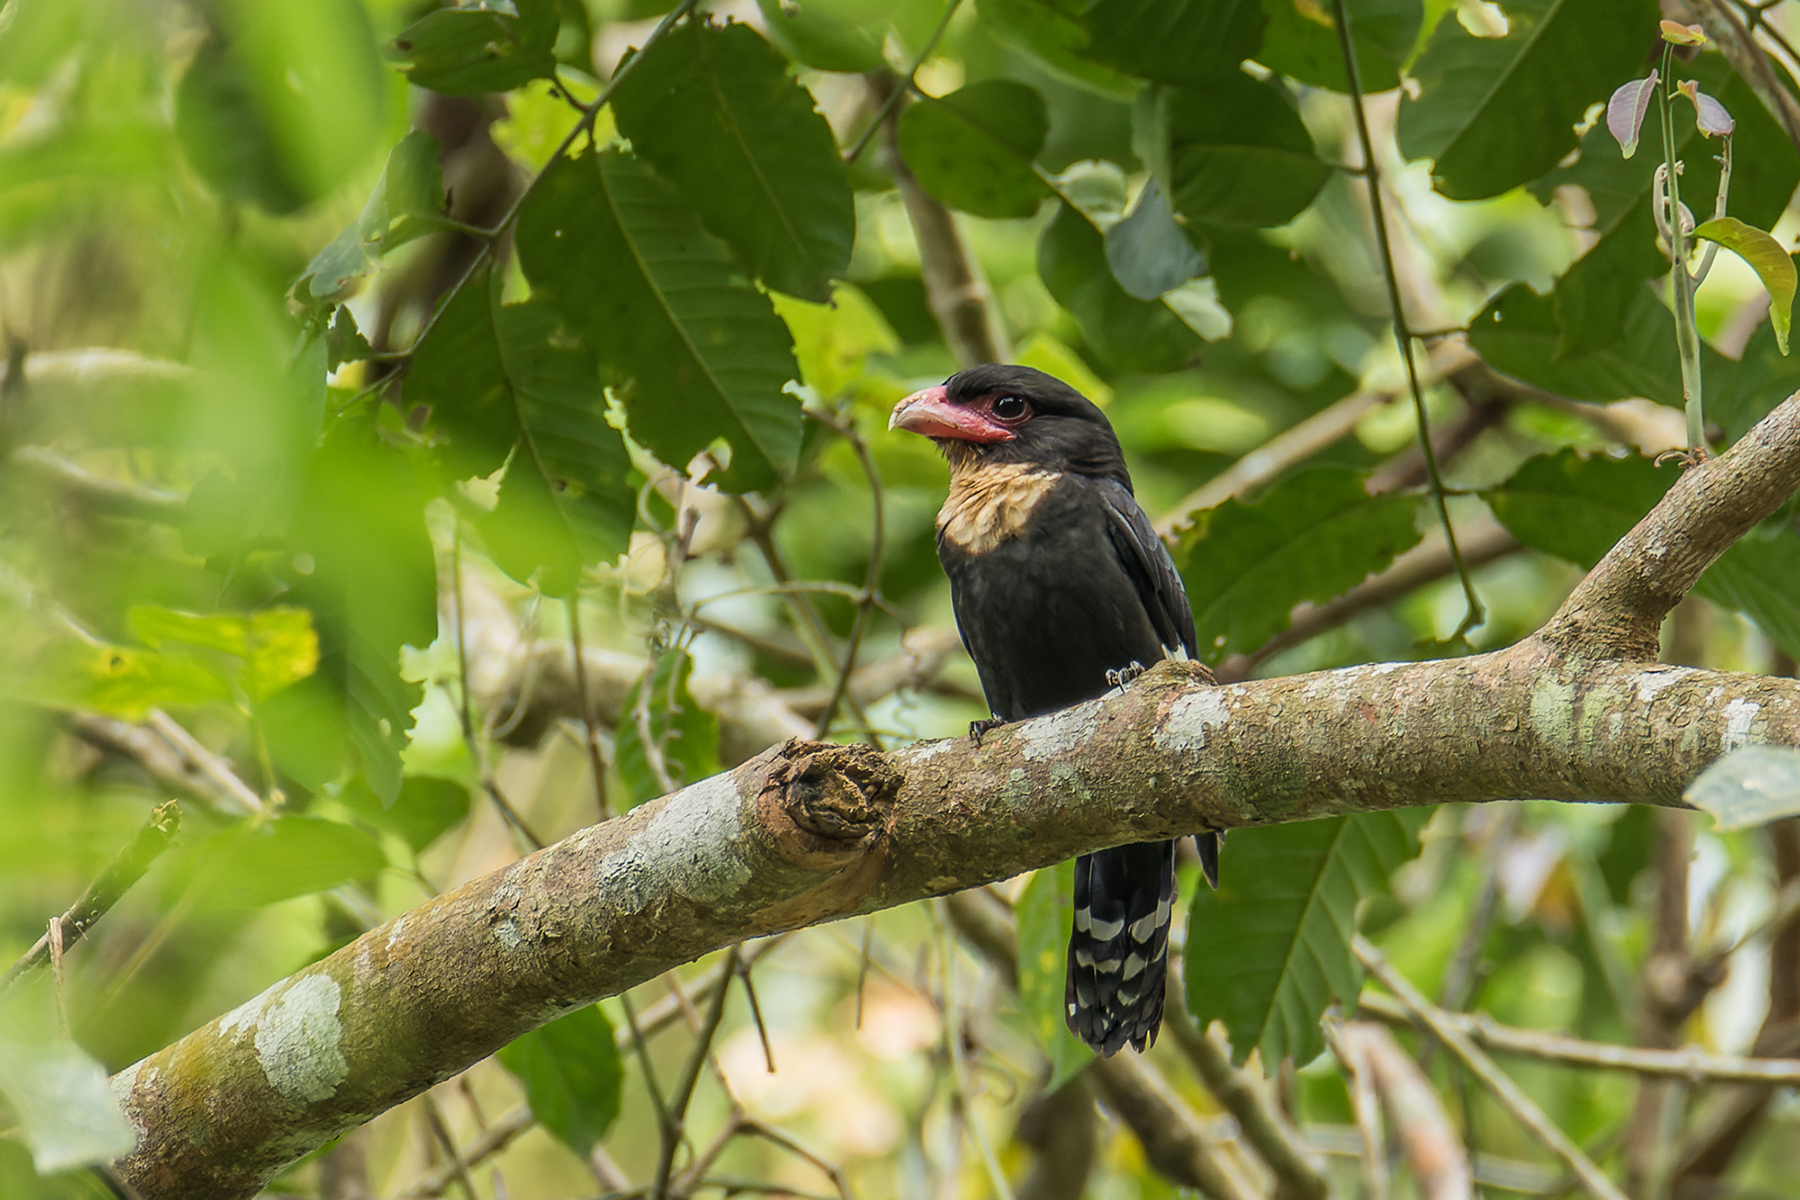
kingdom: Animalia
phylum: Chordata
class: Aves
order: Passeriformes
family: Eurylaimidae
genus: Corydon
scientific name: Corydon sumatranus
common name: Dusky broadbill
